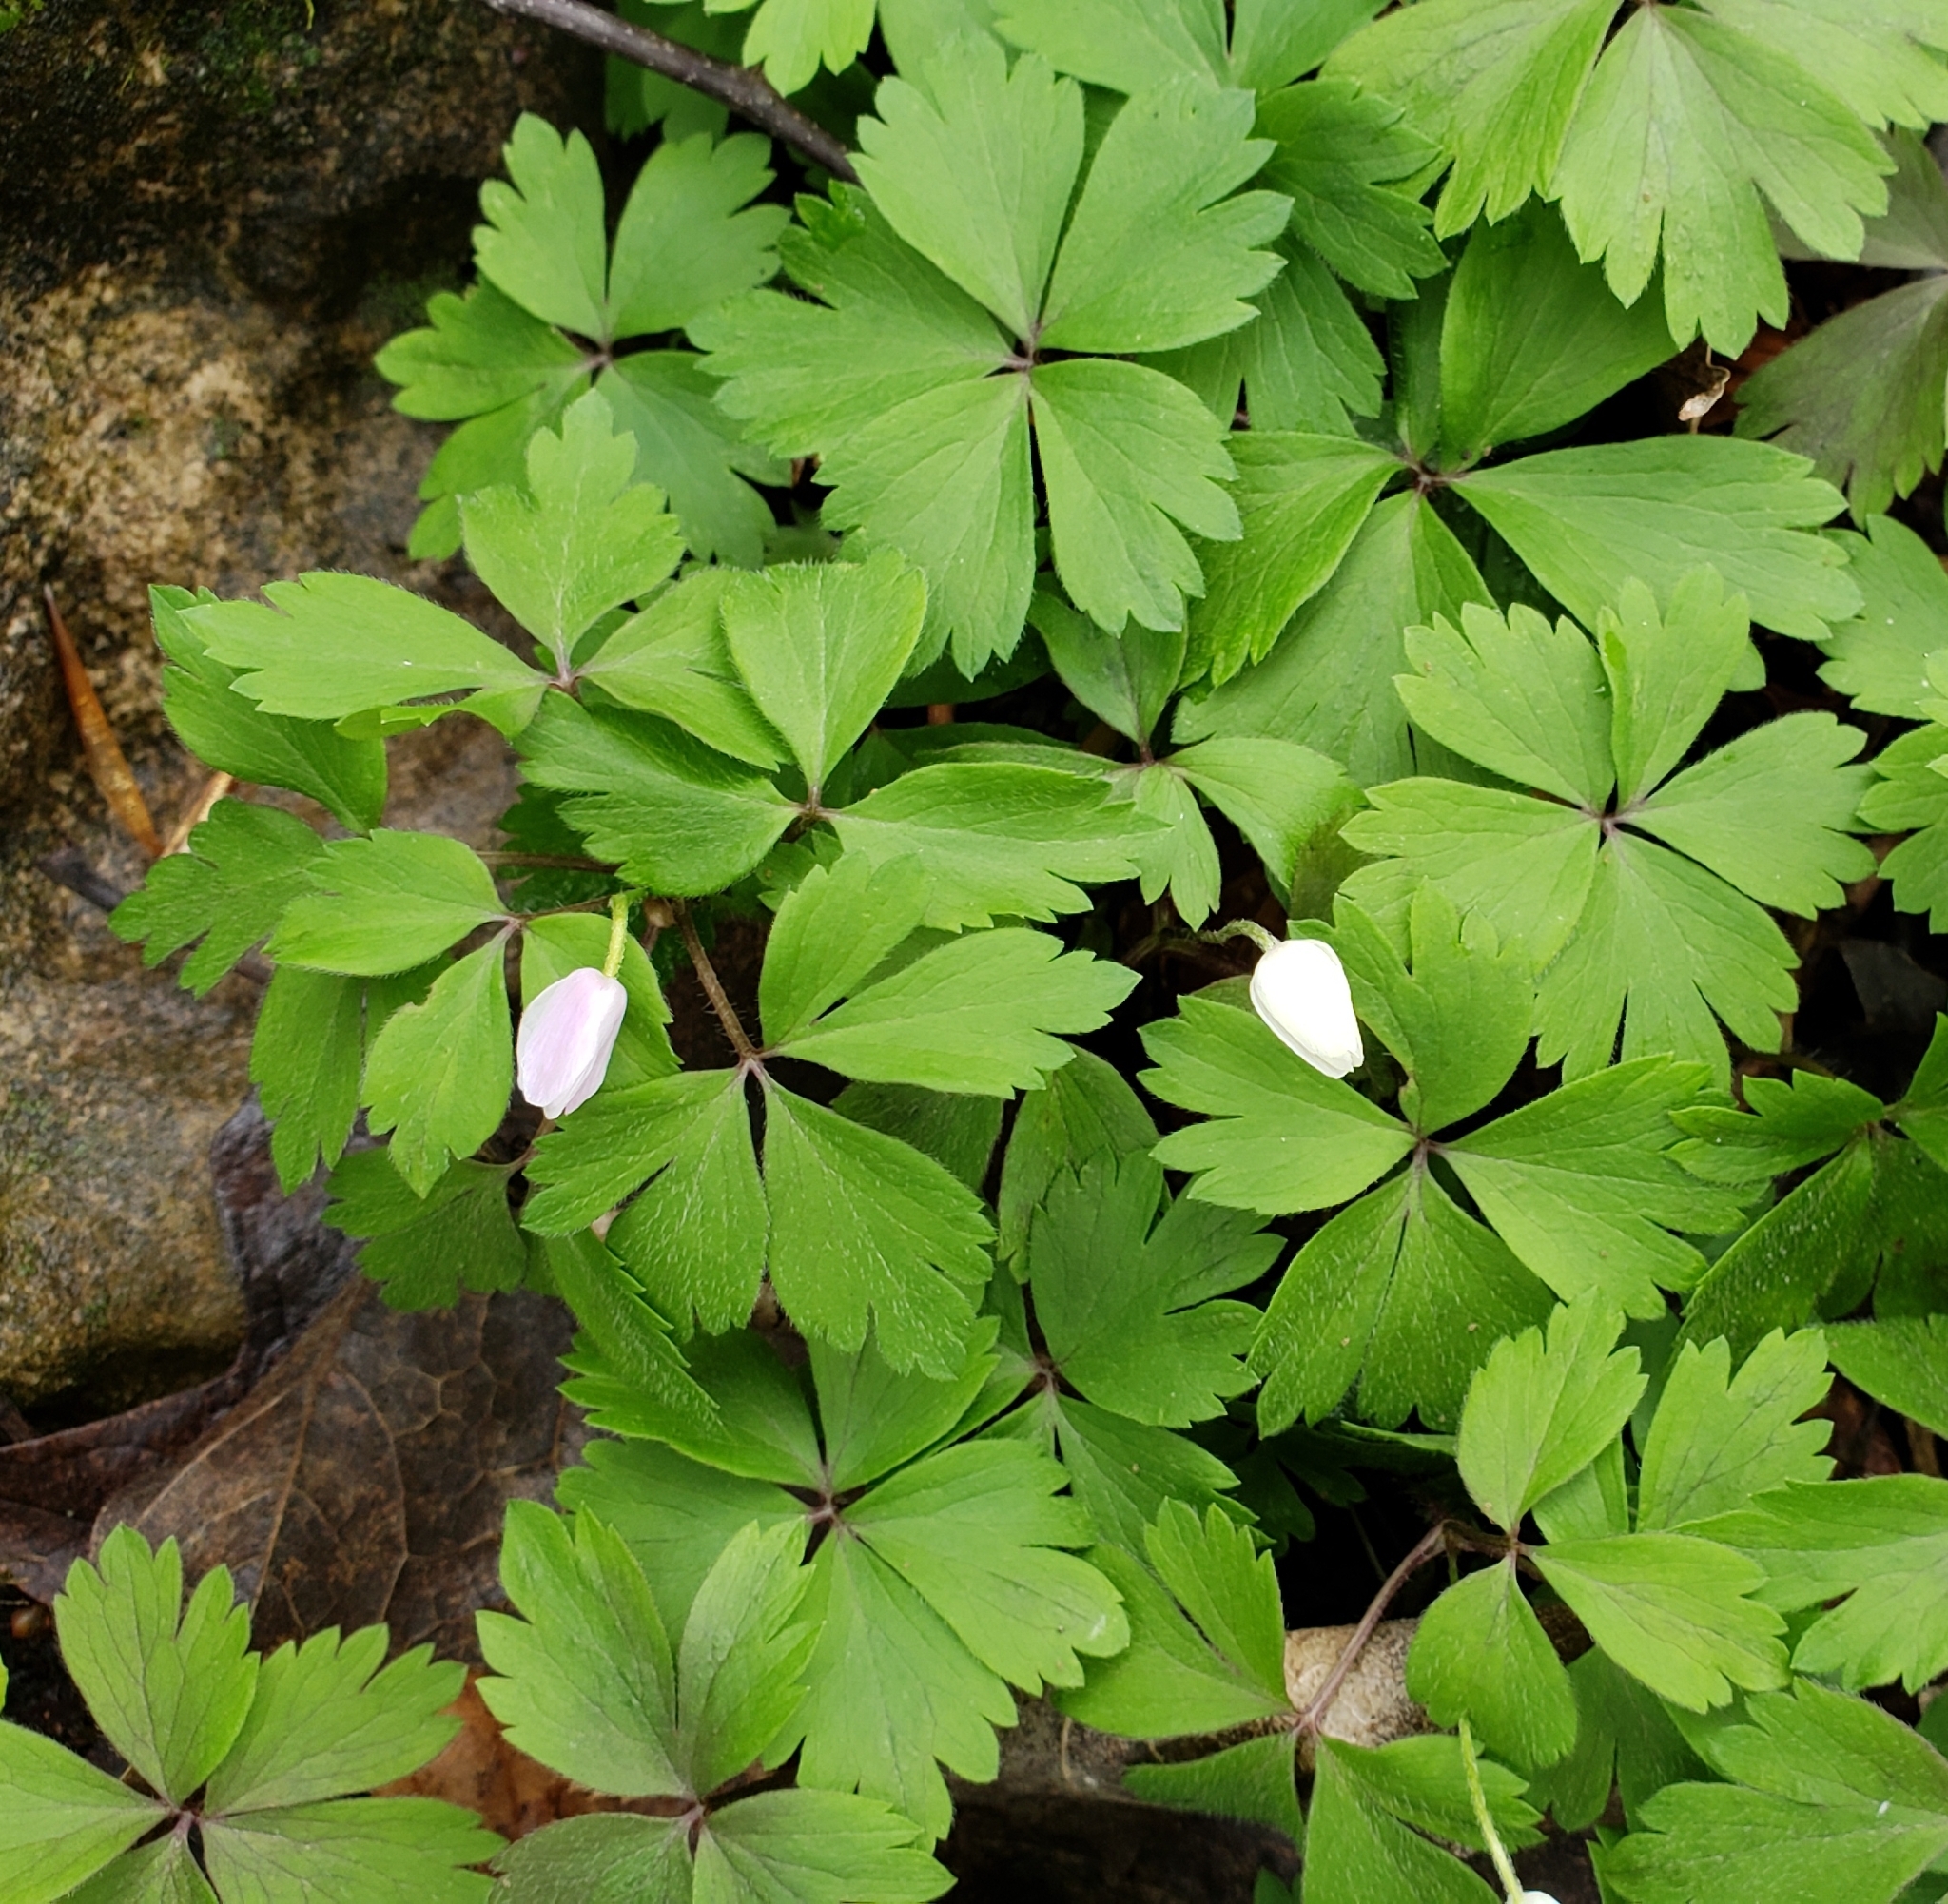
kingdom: Plantae
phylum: Tracheophyta
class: Magnoliopsida
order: Ranunculales
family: Ranunculaceae
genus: Anemone
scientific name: Anemone quinquefolia
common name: Wood anemone
